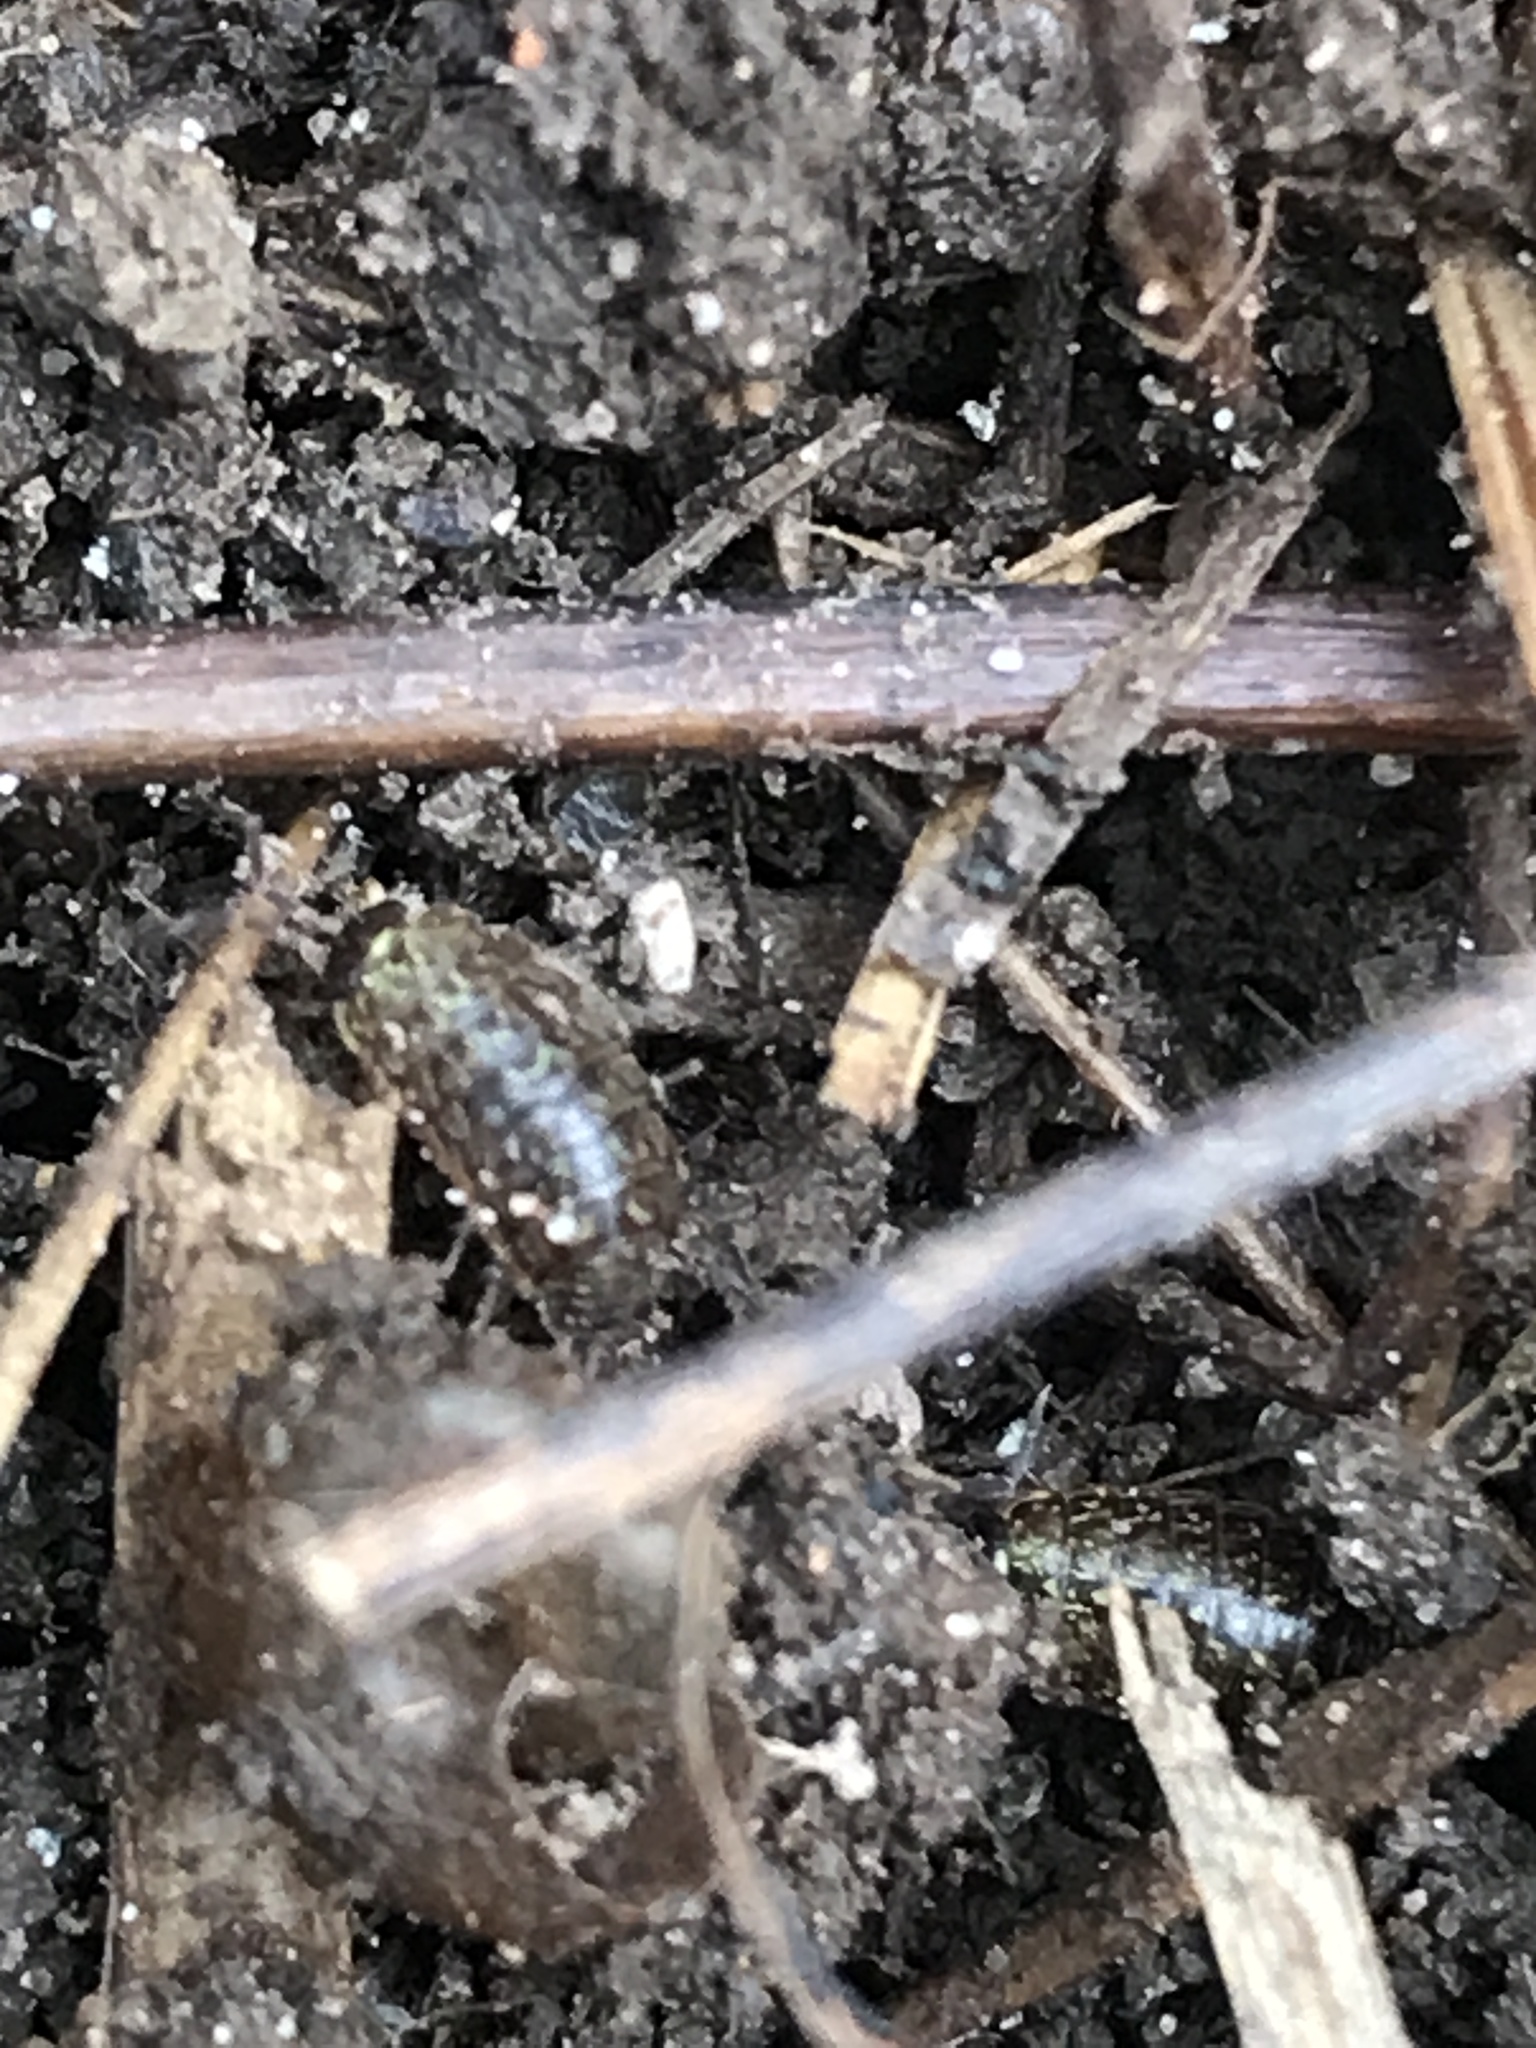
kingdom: Animalia
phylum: Arthropoda
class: Malacostraca
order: Isopoda
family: Philosciidae
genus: Philoscia
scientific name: Philoscia muscorum
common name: Common striped woodlouse
